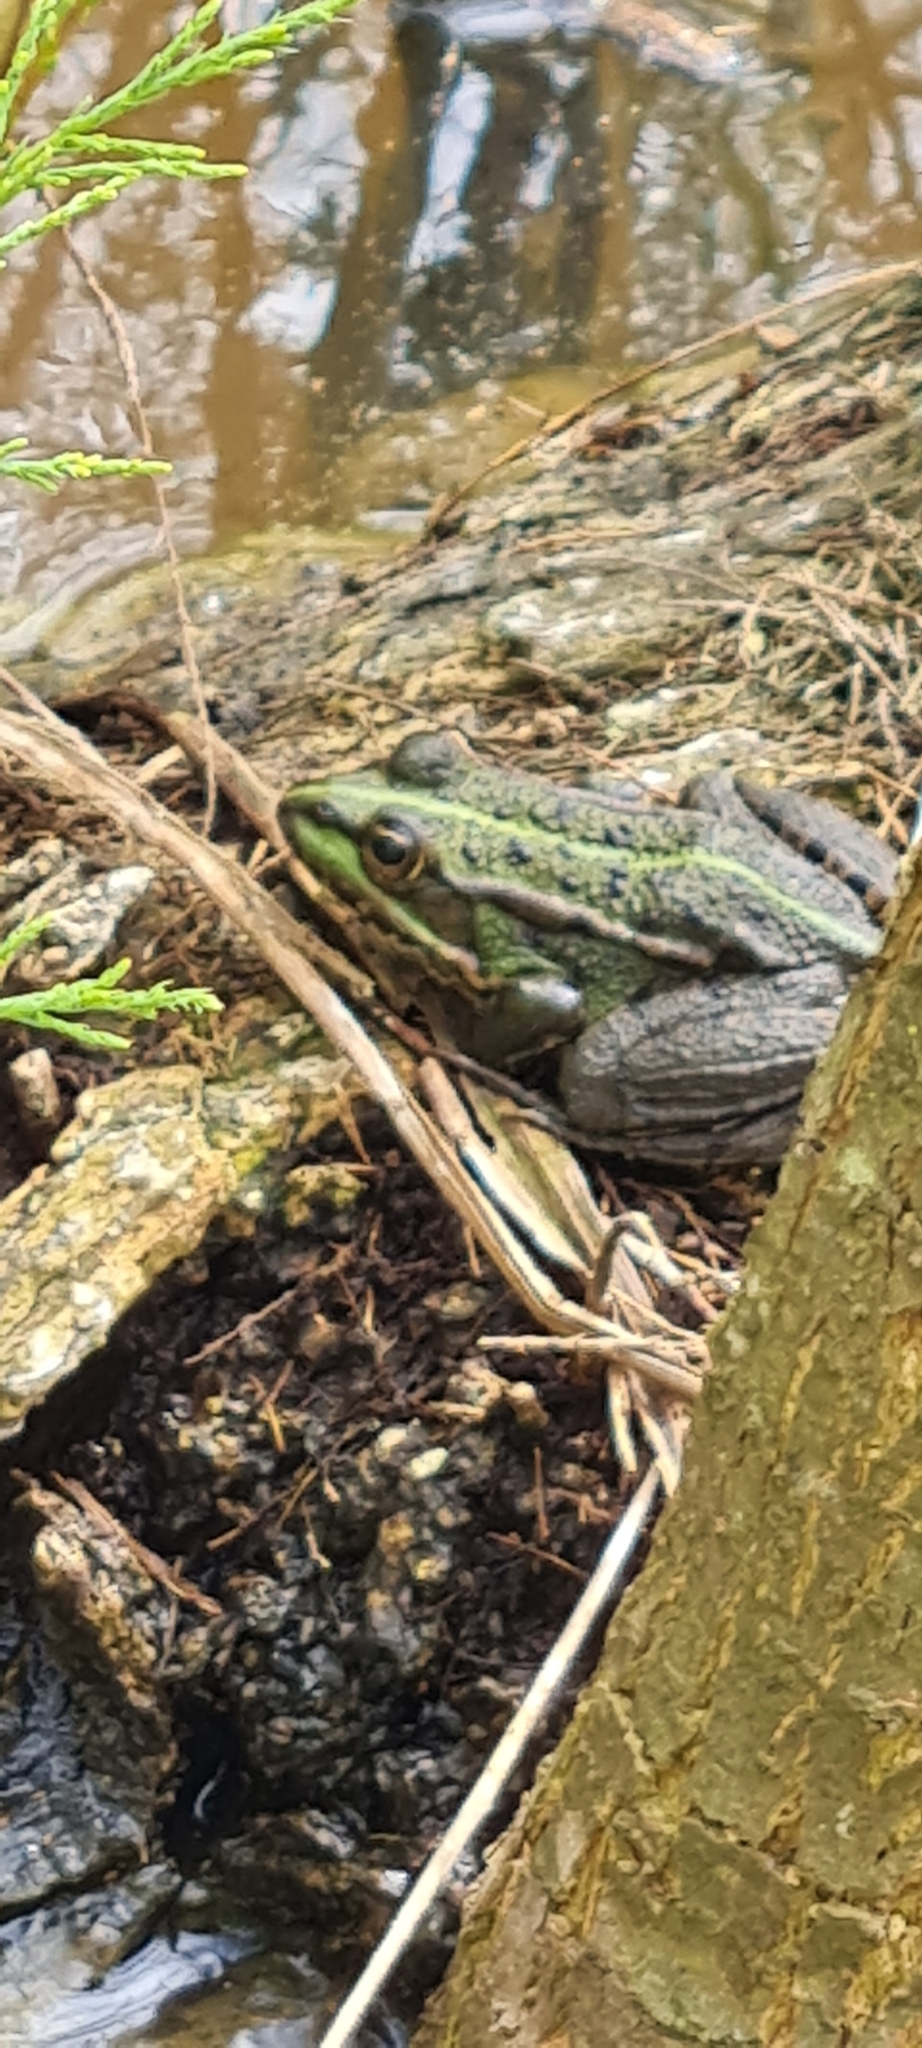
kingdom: Animalia
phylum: Chordata
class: Amphibia
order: Anura
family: Ranidae
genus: Pelophylax
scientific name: Pelophylax perezi
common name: Perez's frog
